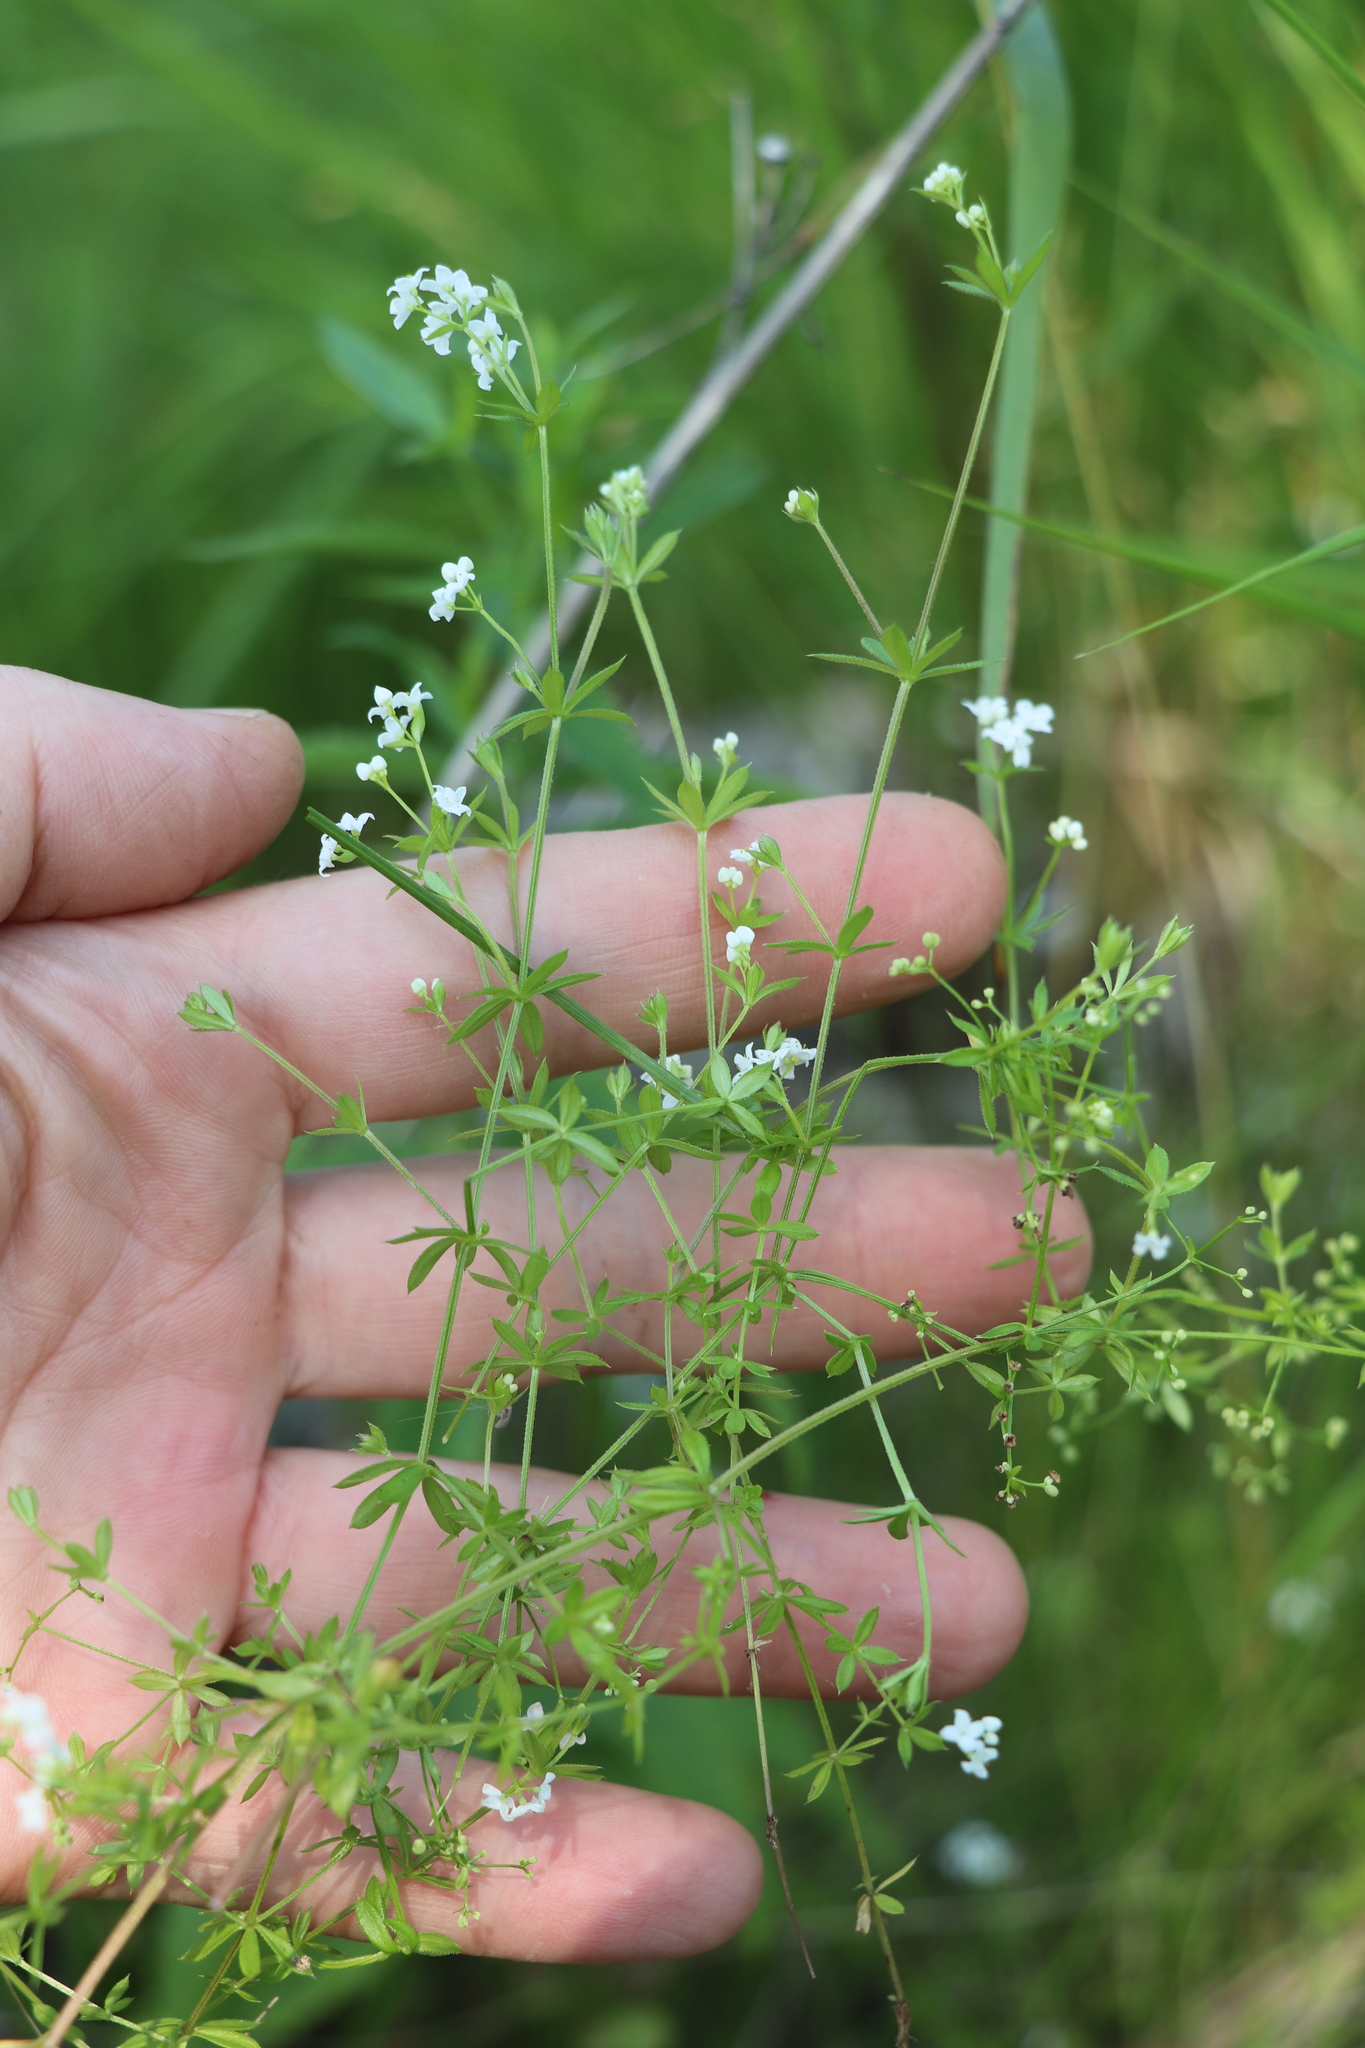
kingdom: Plantae
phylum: Tracheophyta
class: Magnoliopsida
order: Gentianales
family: Rubiaceae
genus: Galium
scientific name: Galium uliginosum
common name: Fen bedstraw
